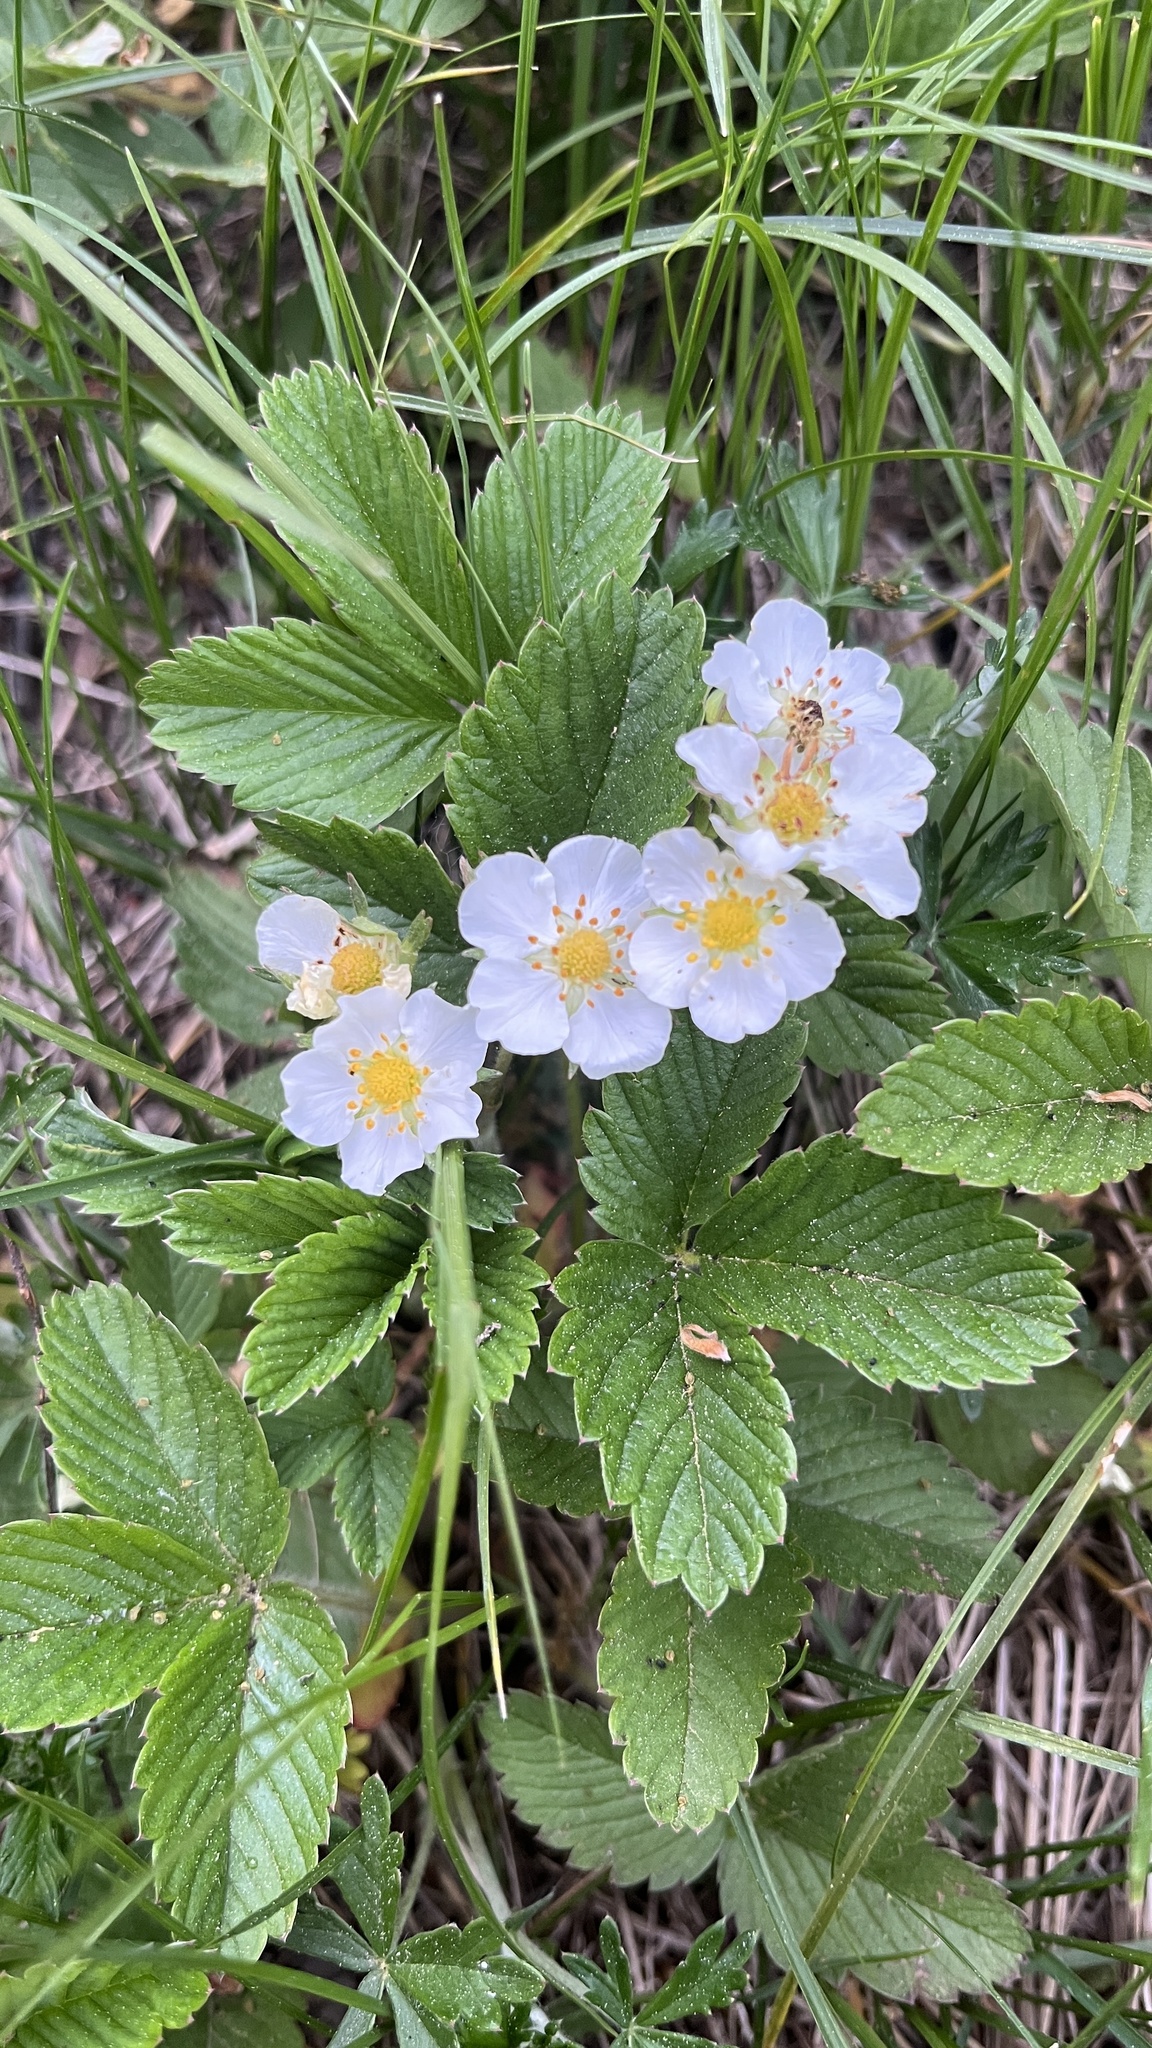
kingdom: Plantae
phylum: Tracheophyta
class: Magnoliopsida
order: Rosales
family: Rosaceae
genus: Fragaria
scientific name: Fragaria viridis
